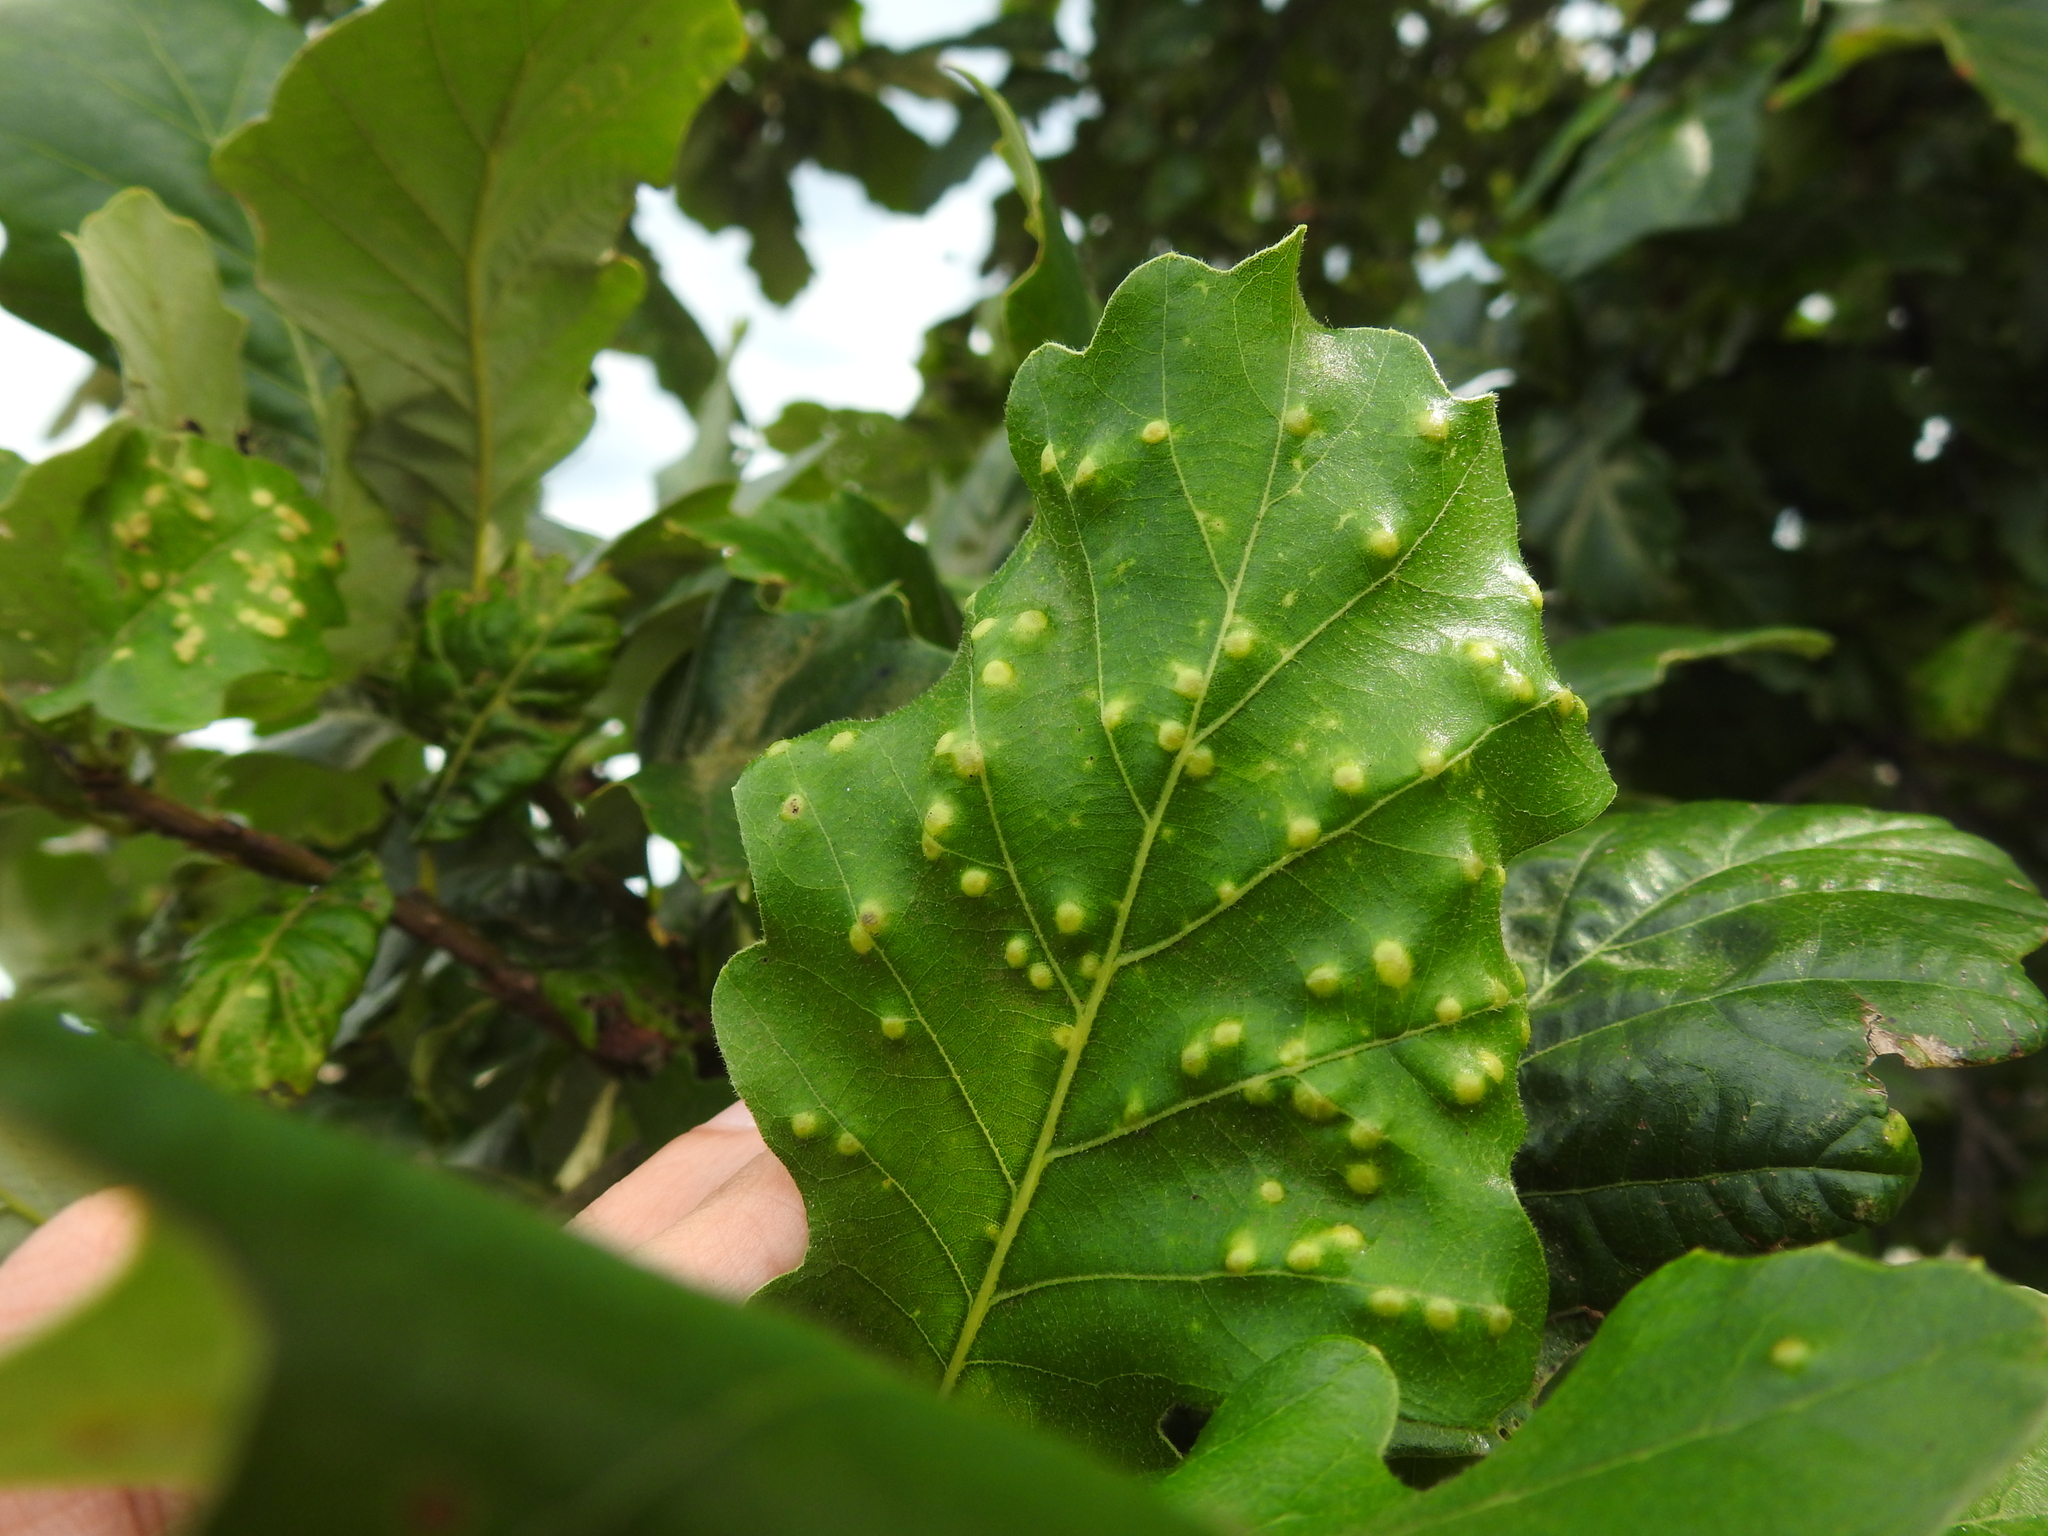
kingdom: Animalia
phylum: Arthropoda
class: Insecta
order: Hymenoptera
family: Cynipidae
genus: Neuroterus
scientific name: Neuroterus quercusverrucarum
